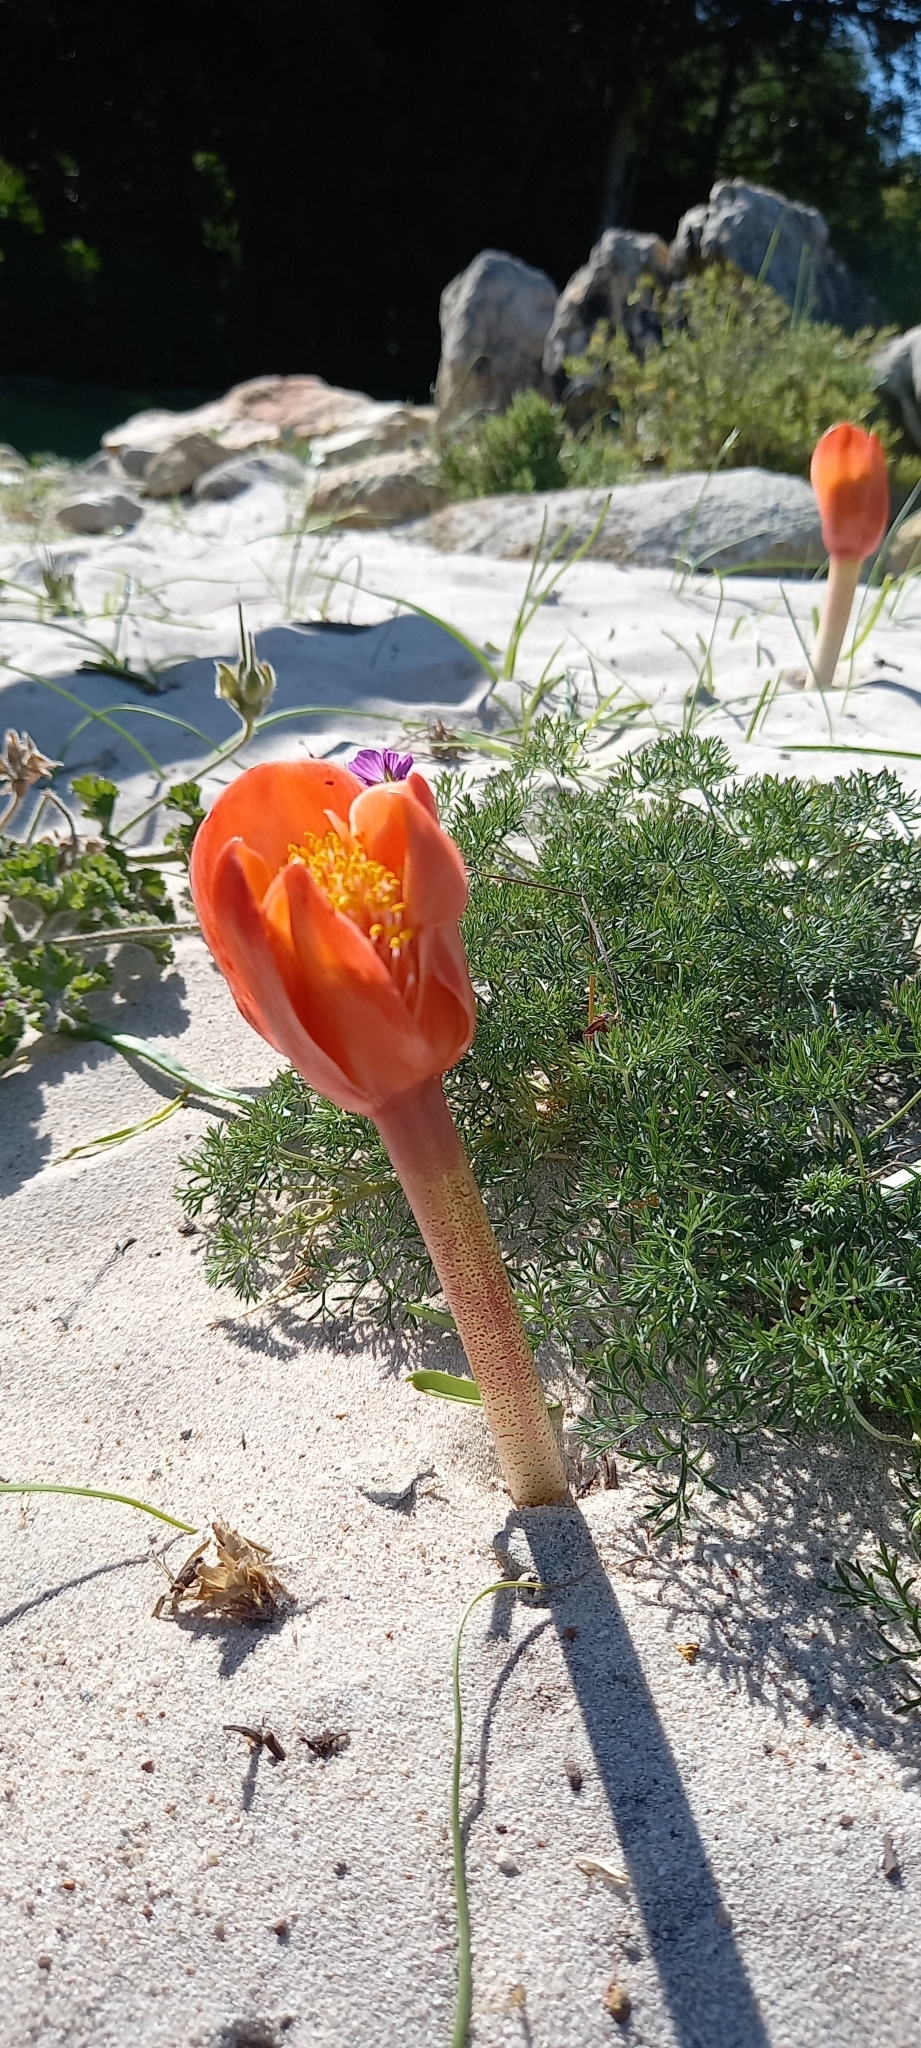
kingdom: Plantae
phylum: Tracheophyta
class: Liliopsida
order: Asparagales
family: Amaryllidaceae
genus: Haemanthus
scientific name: Haemanthus coccineus
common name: Cape-tulip
